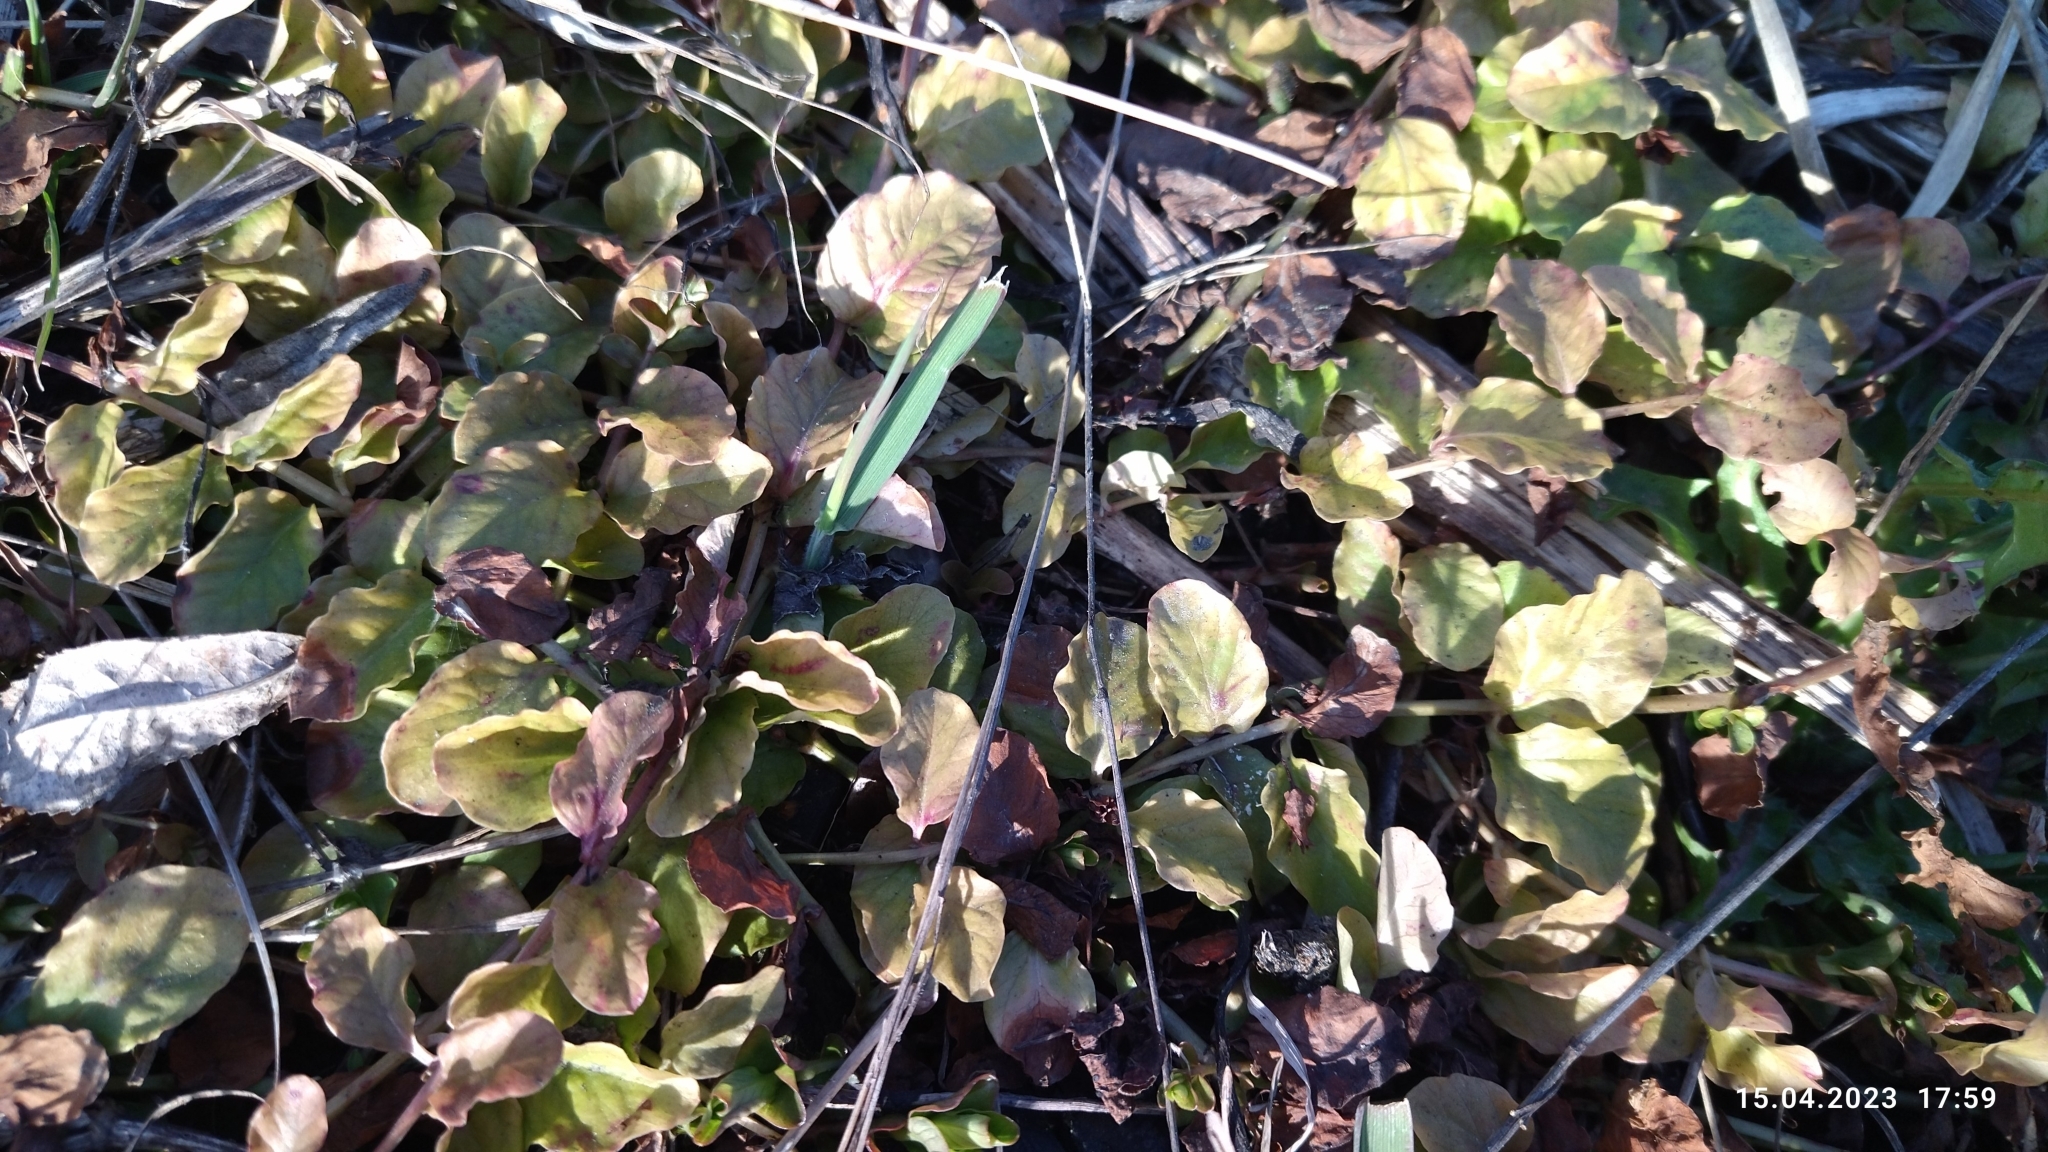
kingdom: Plantae
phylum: Tracheophyta
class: Magnoliopsida
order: Ericales
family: Primulaceae
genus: Lysimachia
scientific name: Lysimachia nummularia
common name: Moneywort
